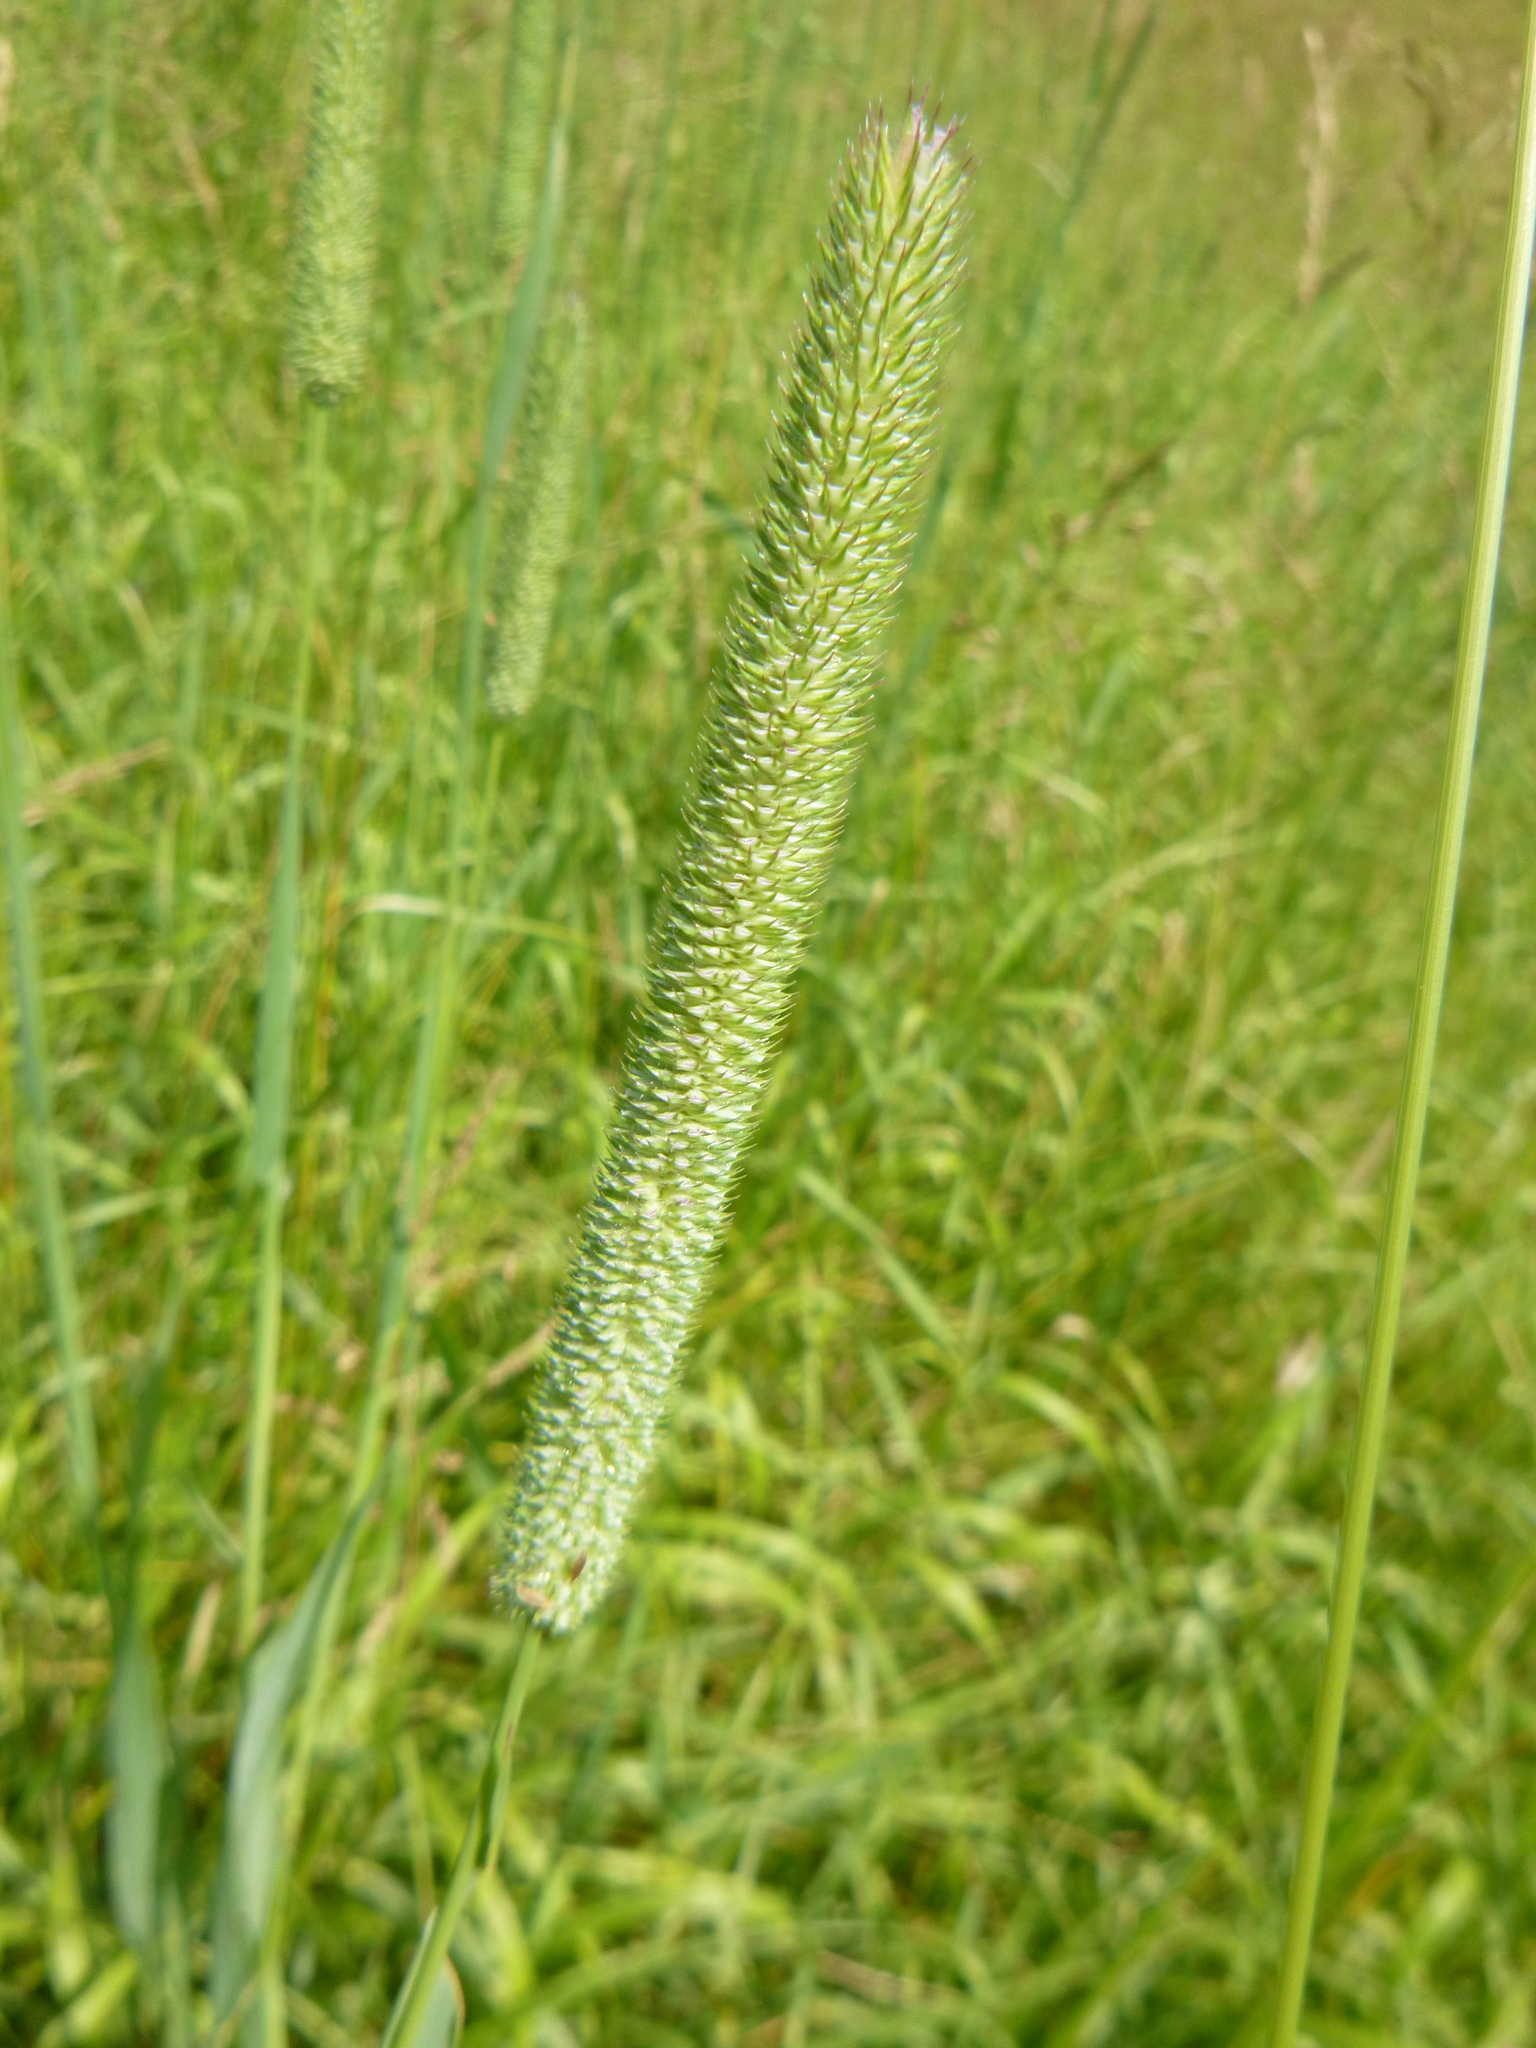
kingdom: Plantae
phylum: Tracheophyta
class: Liliopsida
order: Poales
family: Poaceae
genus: Phleum
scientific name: Phleum pratense
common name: Timothy grass
